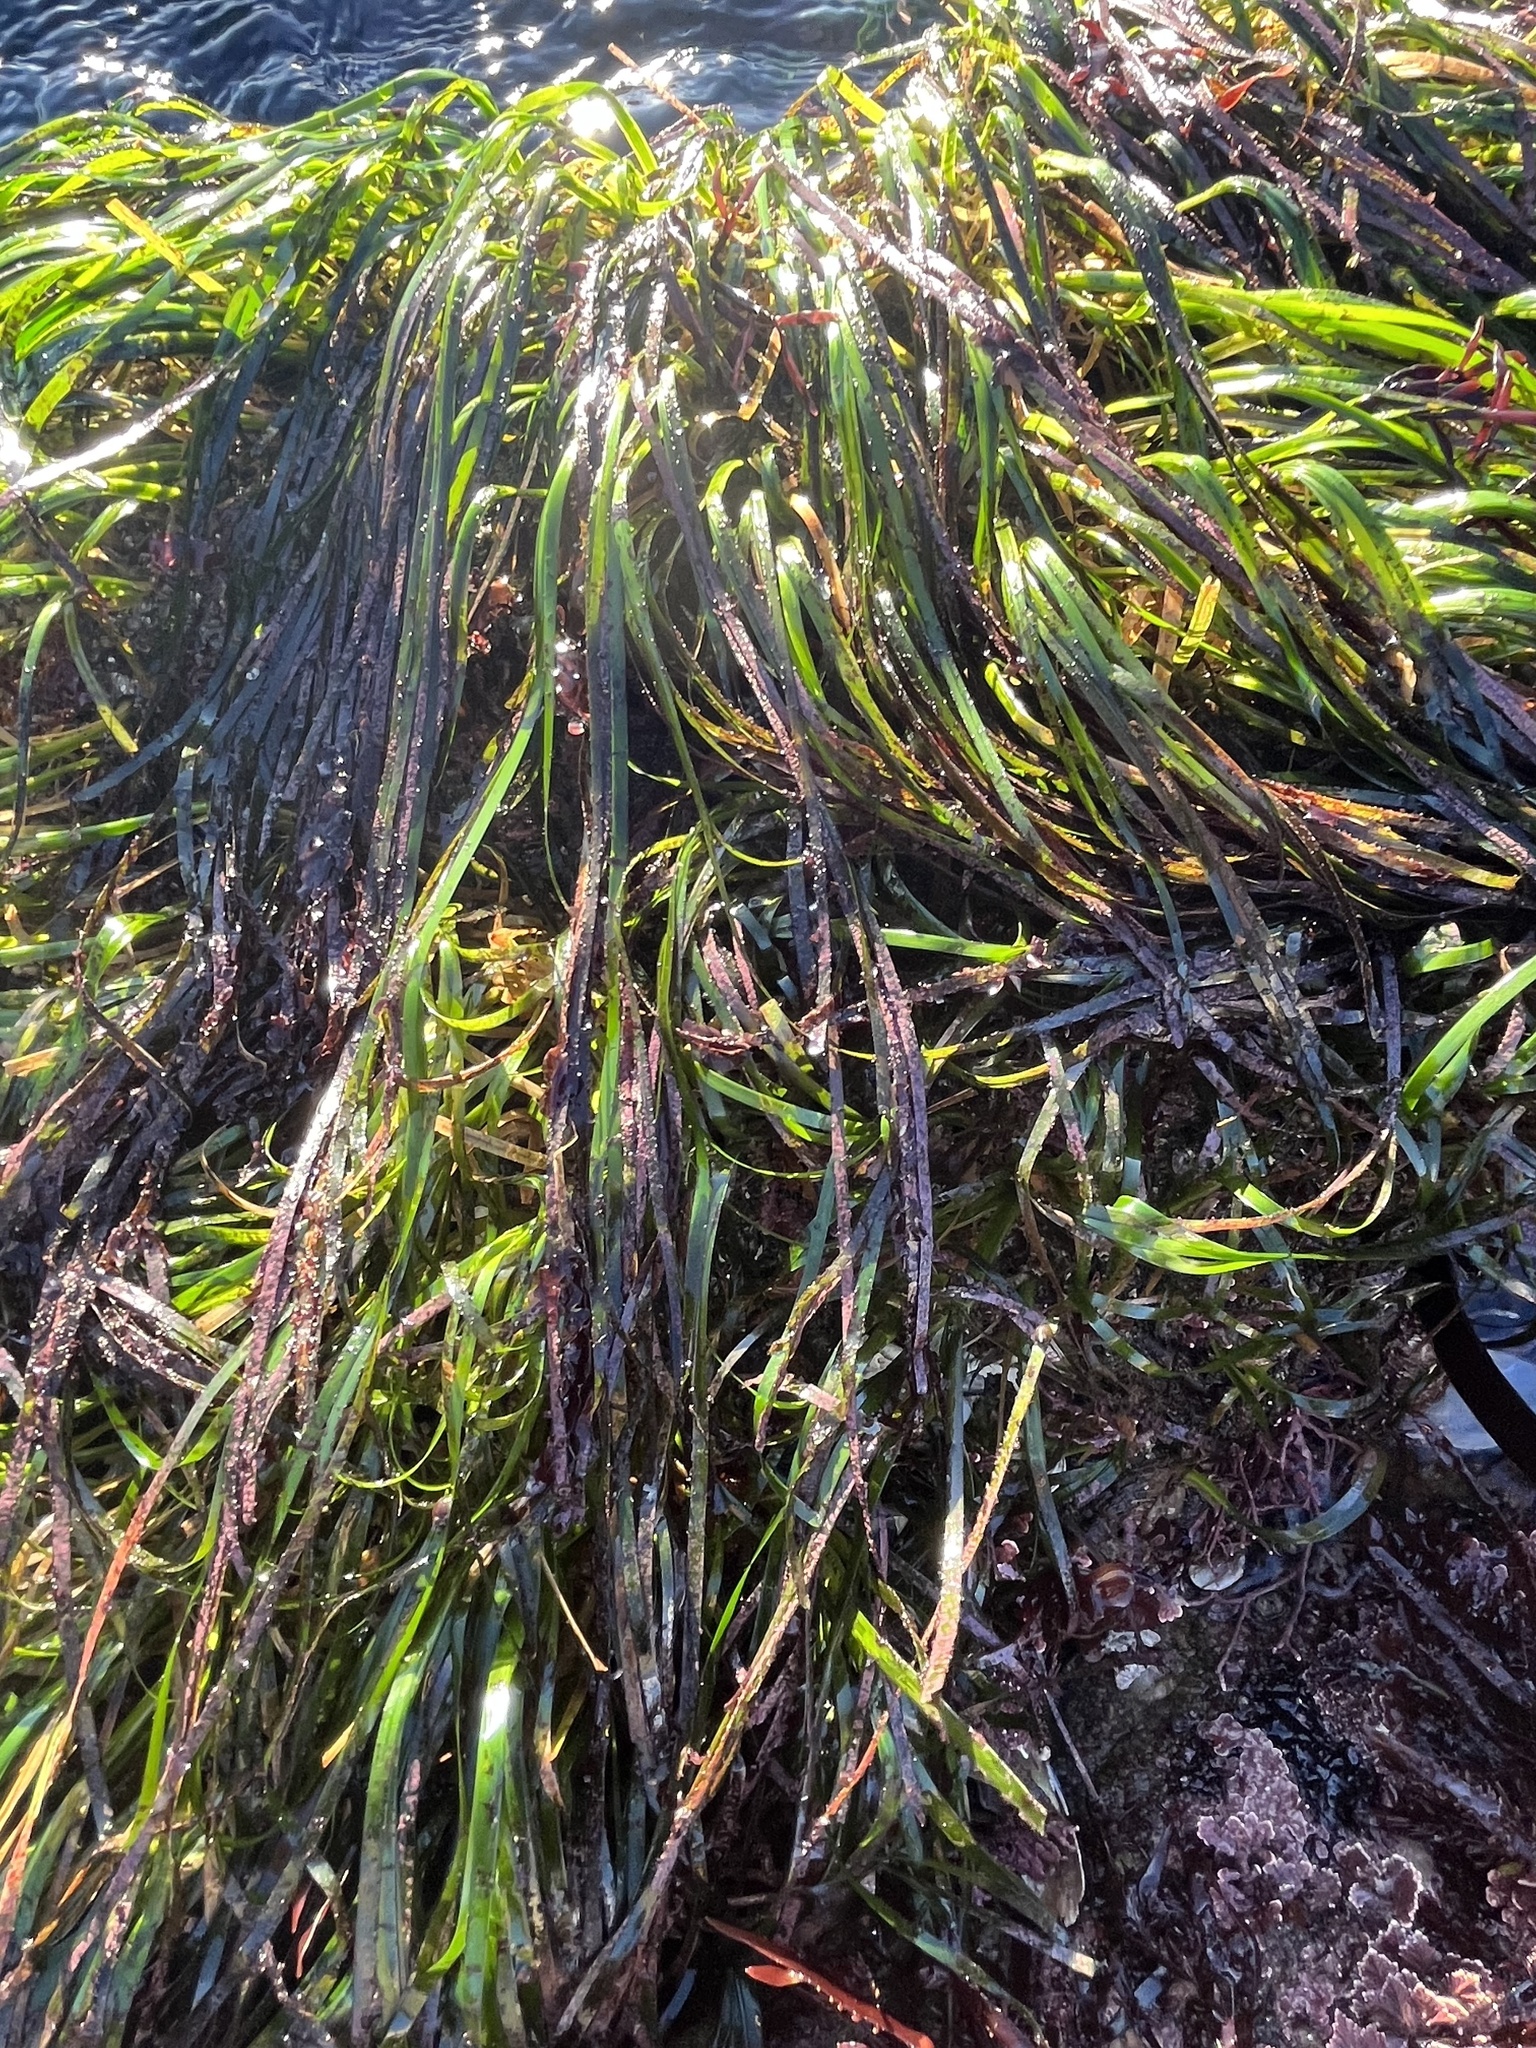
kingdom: Plantae
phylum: Tracheophyta
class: Liliopsida
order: Alismatales
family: Zosteraceae
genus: Phyllospadix
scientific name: Phyllospadix scouleri
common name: Species code: ps
